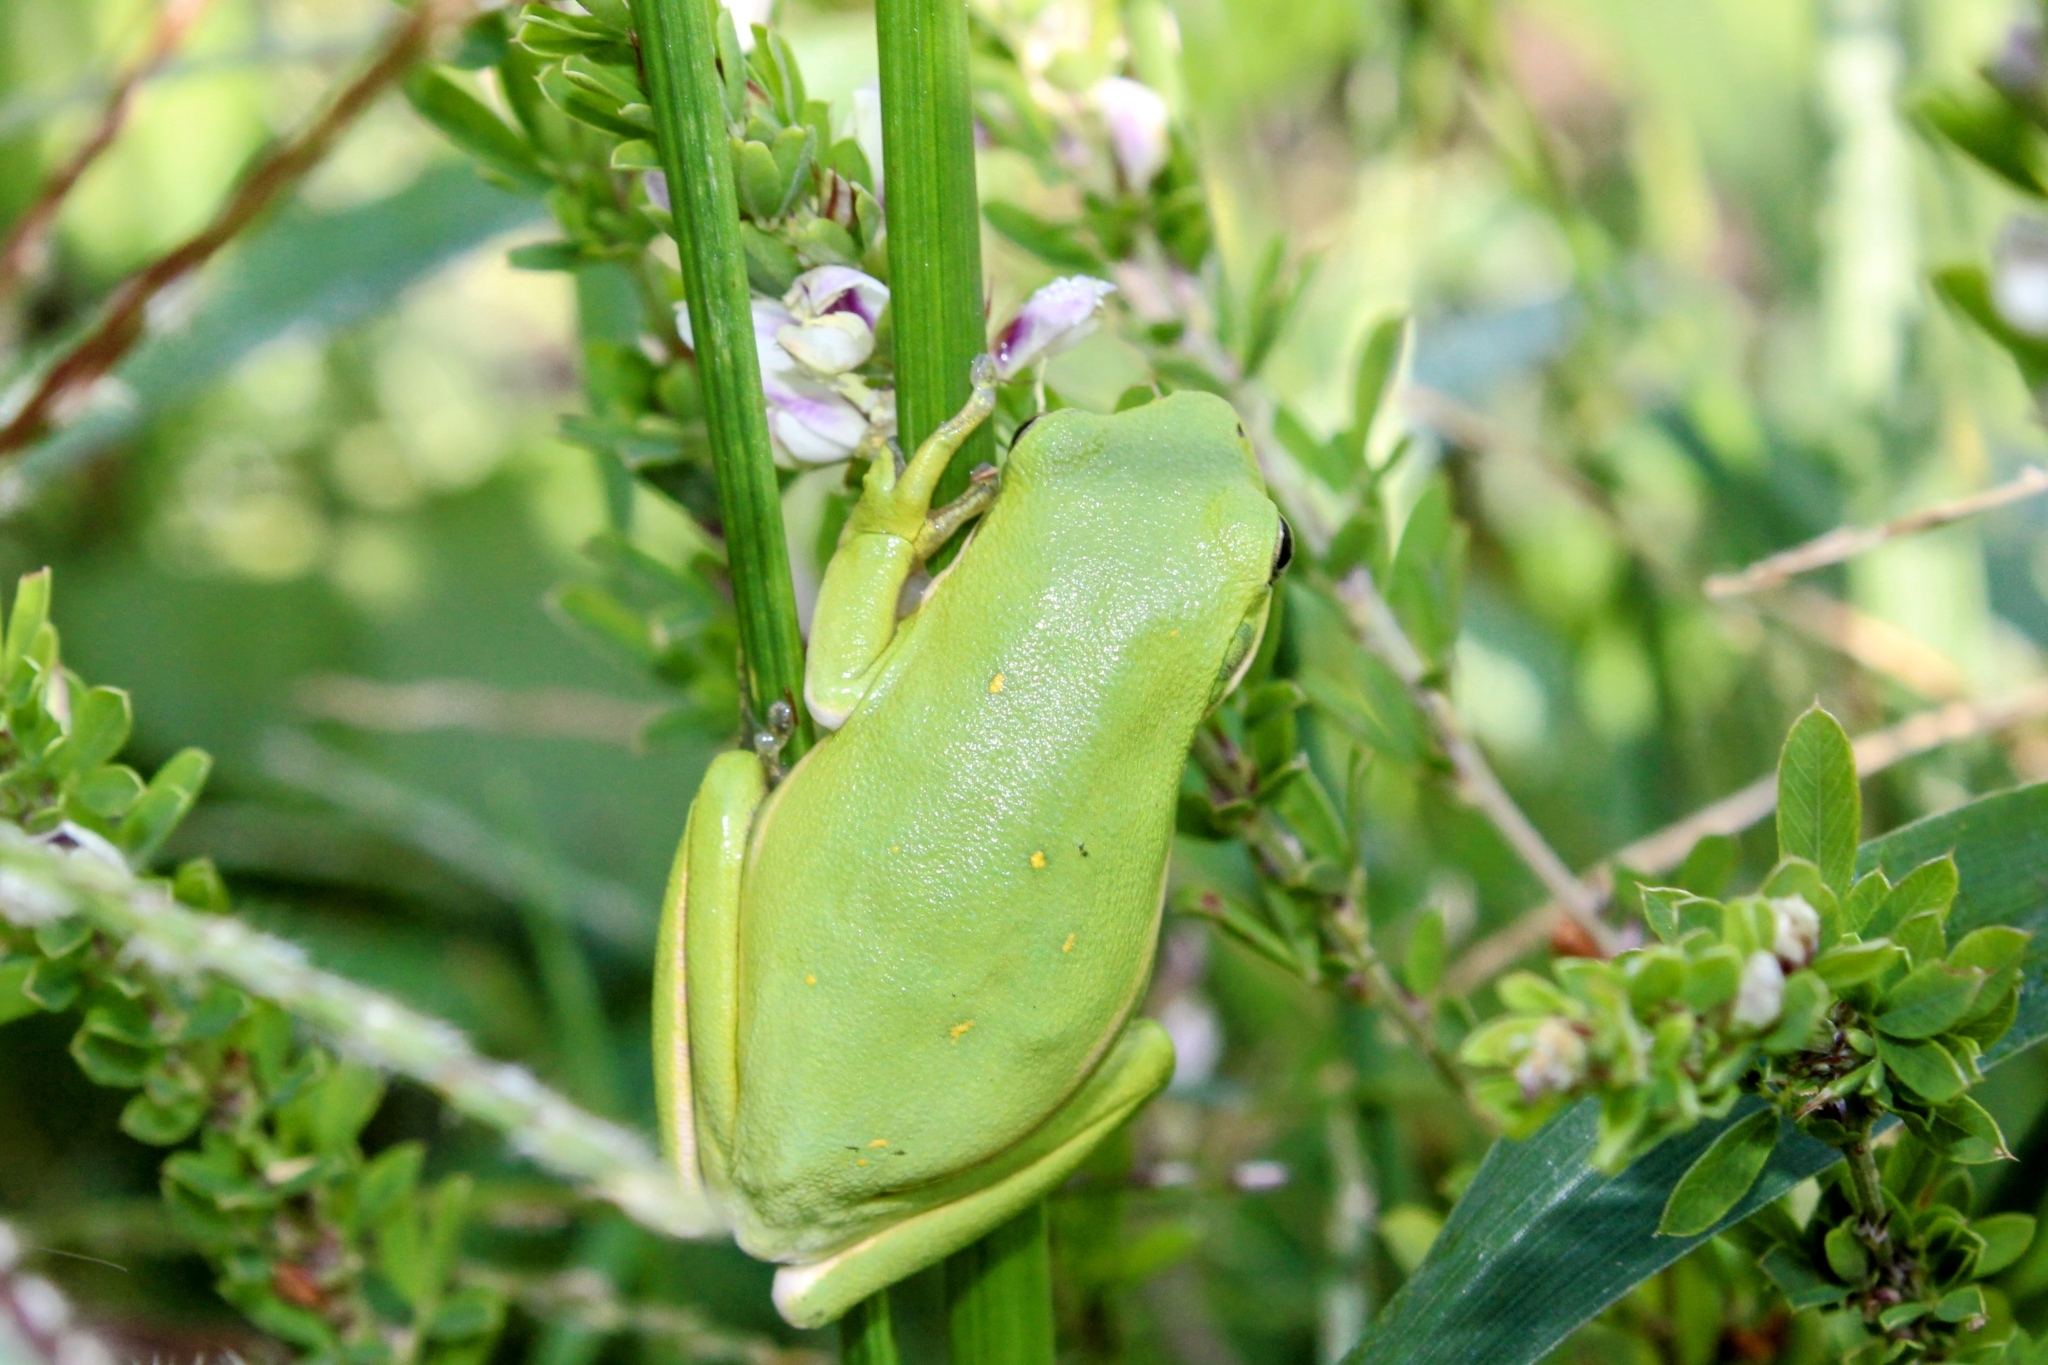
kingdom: Animalia
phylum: Chordata
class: Amphibia
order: Anura
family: Hylidae
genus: Dryophytes
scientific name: Dryophytes cinereus
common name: Green treefrog
